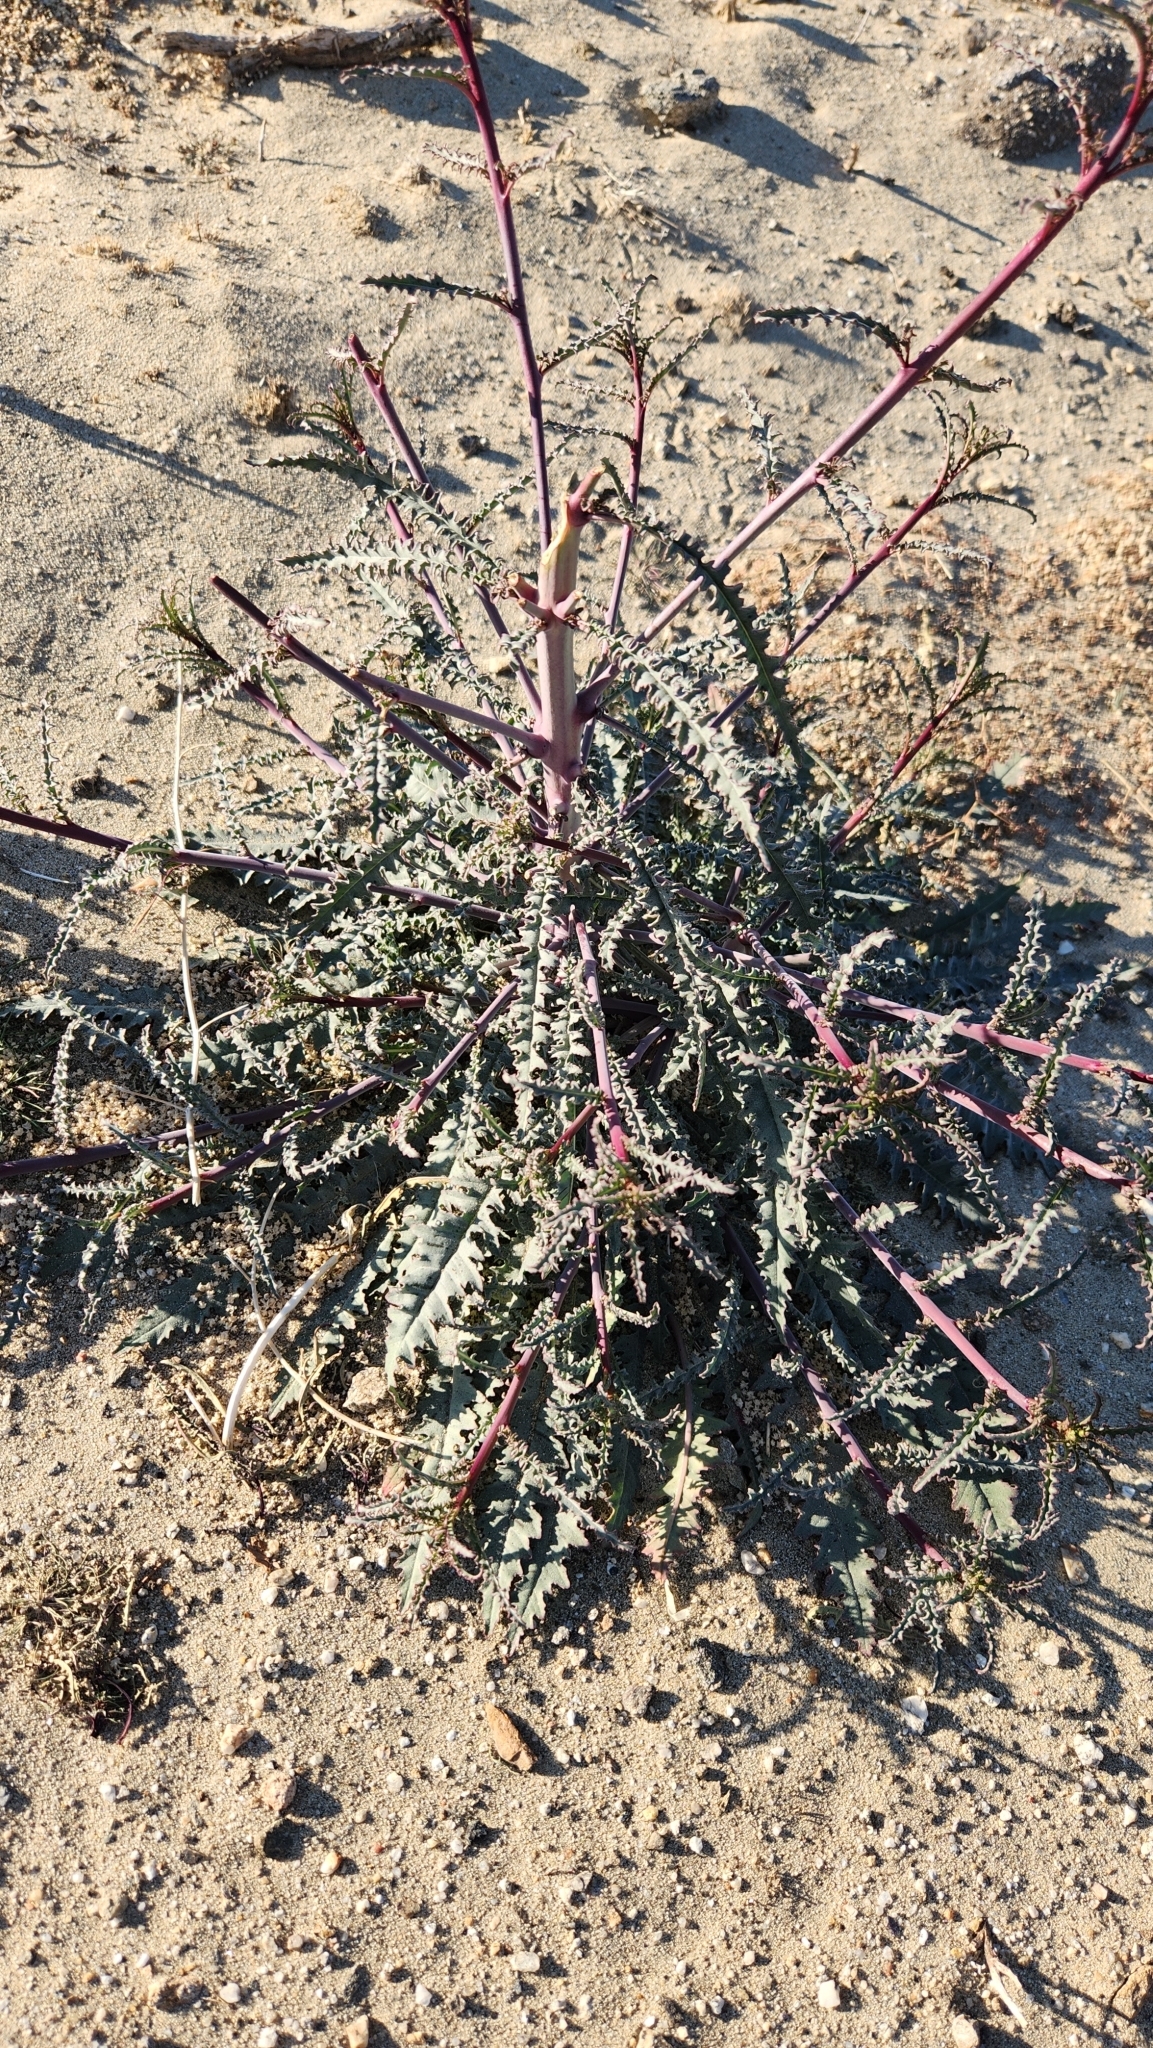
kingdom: Plantae
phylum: Tracheophyta
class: Magnoliopsida
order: Myrtales
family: Onagraceae
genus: Eulobus
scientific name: Eulobus californicus
